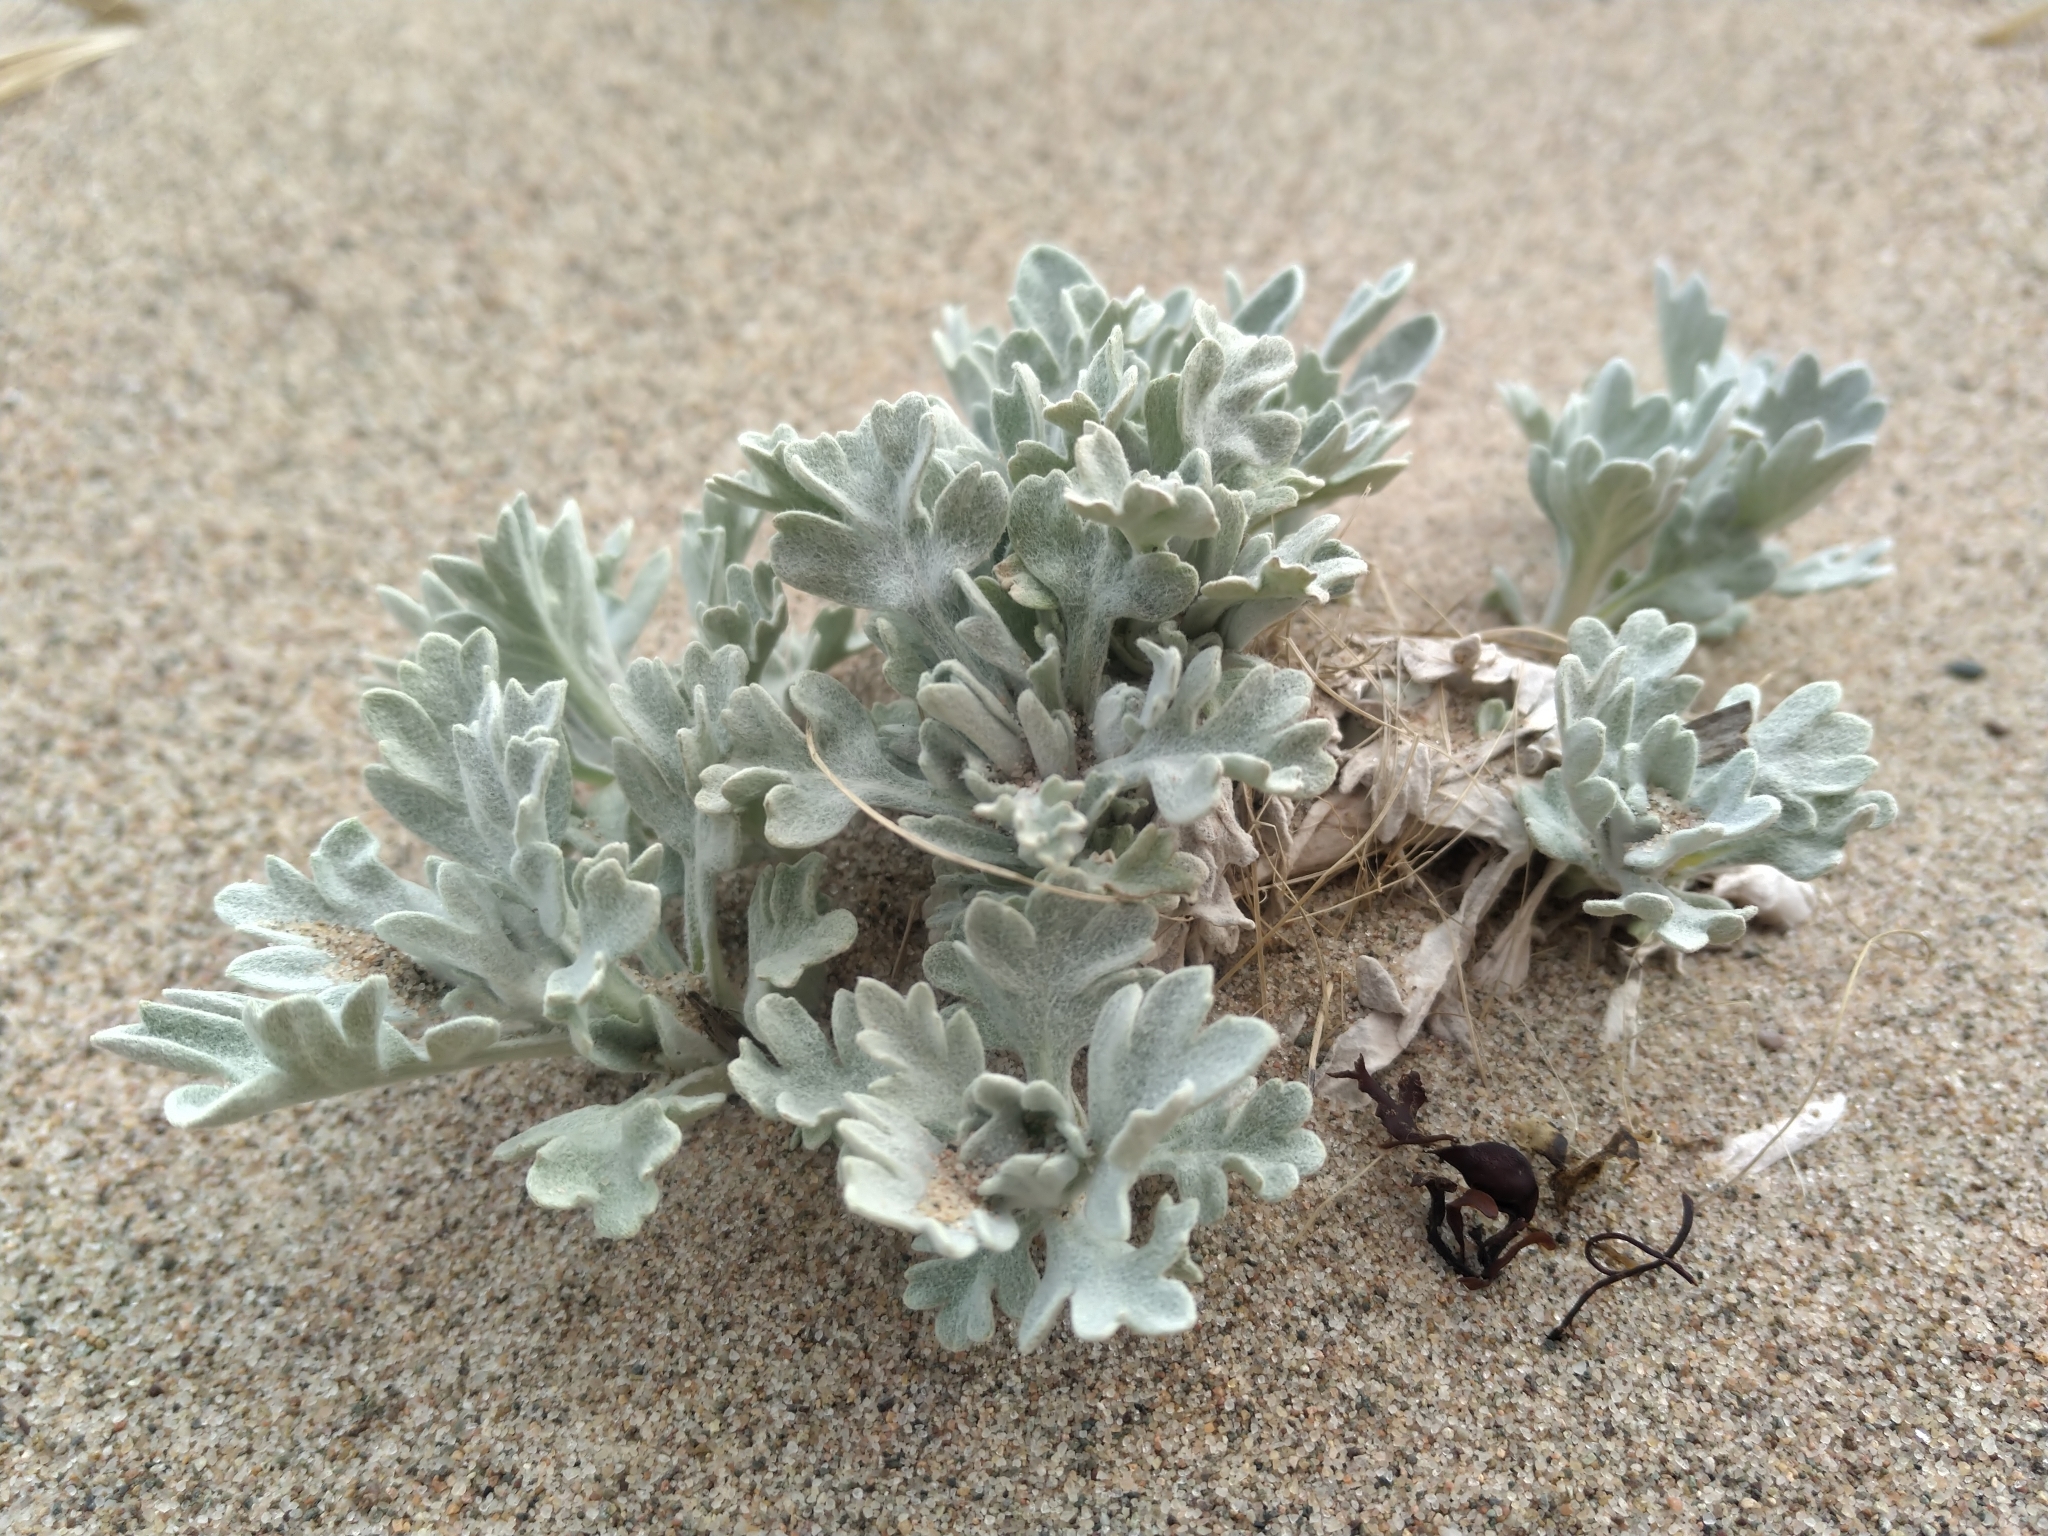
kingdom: Plantae
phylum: Tracheophyta
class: Magnoliopsida
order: Asterales
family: Asteraceae
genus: Artemisia
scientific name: Artemisia stelleriana
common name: Beach wormwood
